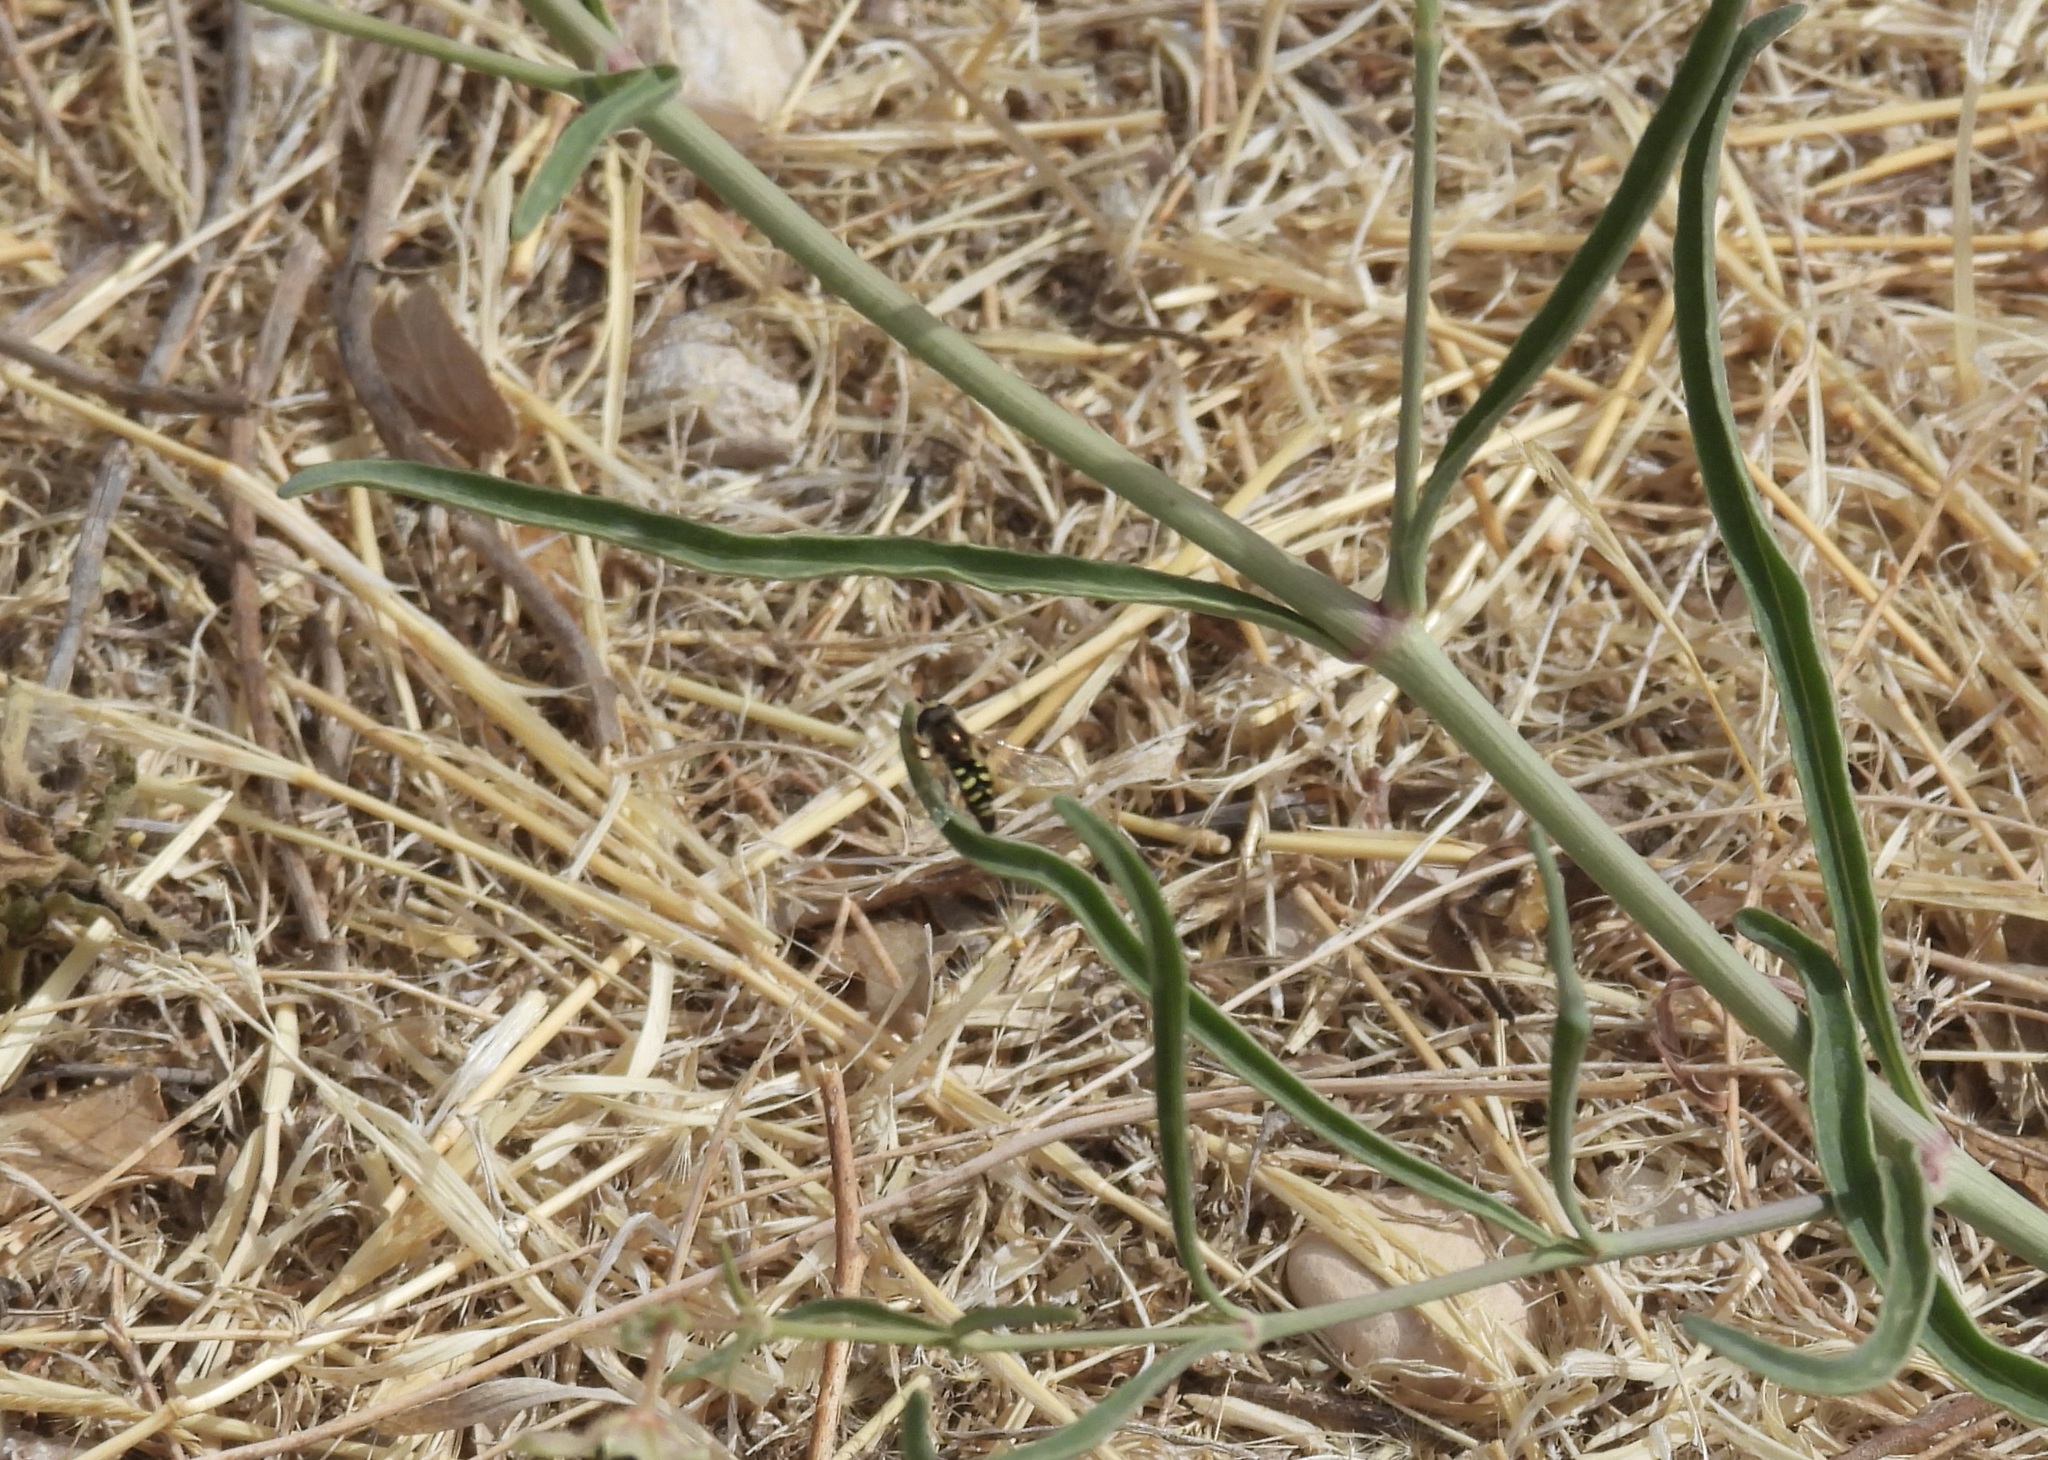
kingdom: Animalia
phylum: Arthropoda
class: Insecta
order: Diptera
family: Syrphidae
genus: Eupeodes
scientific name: Eupeodes volucris
